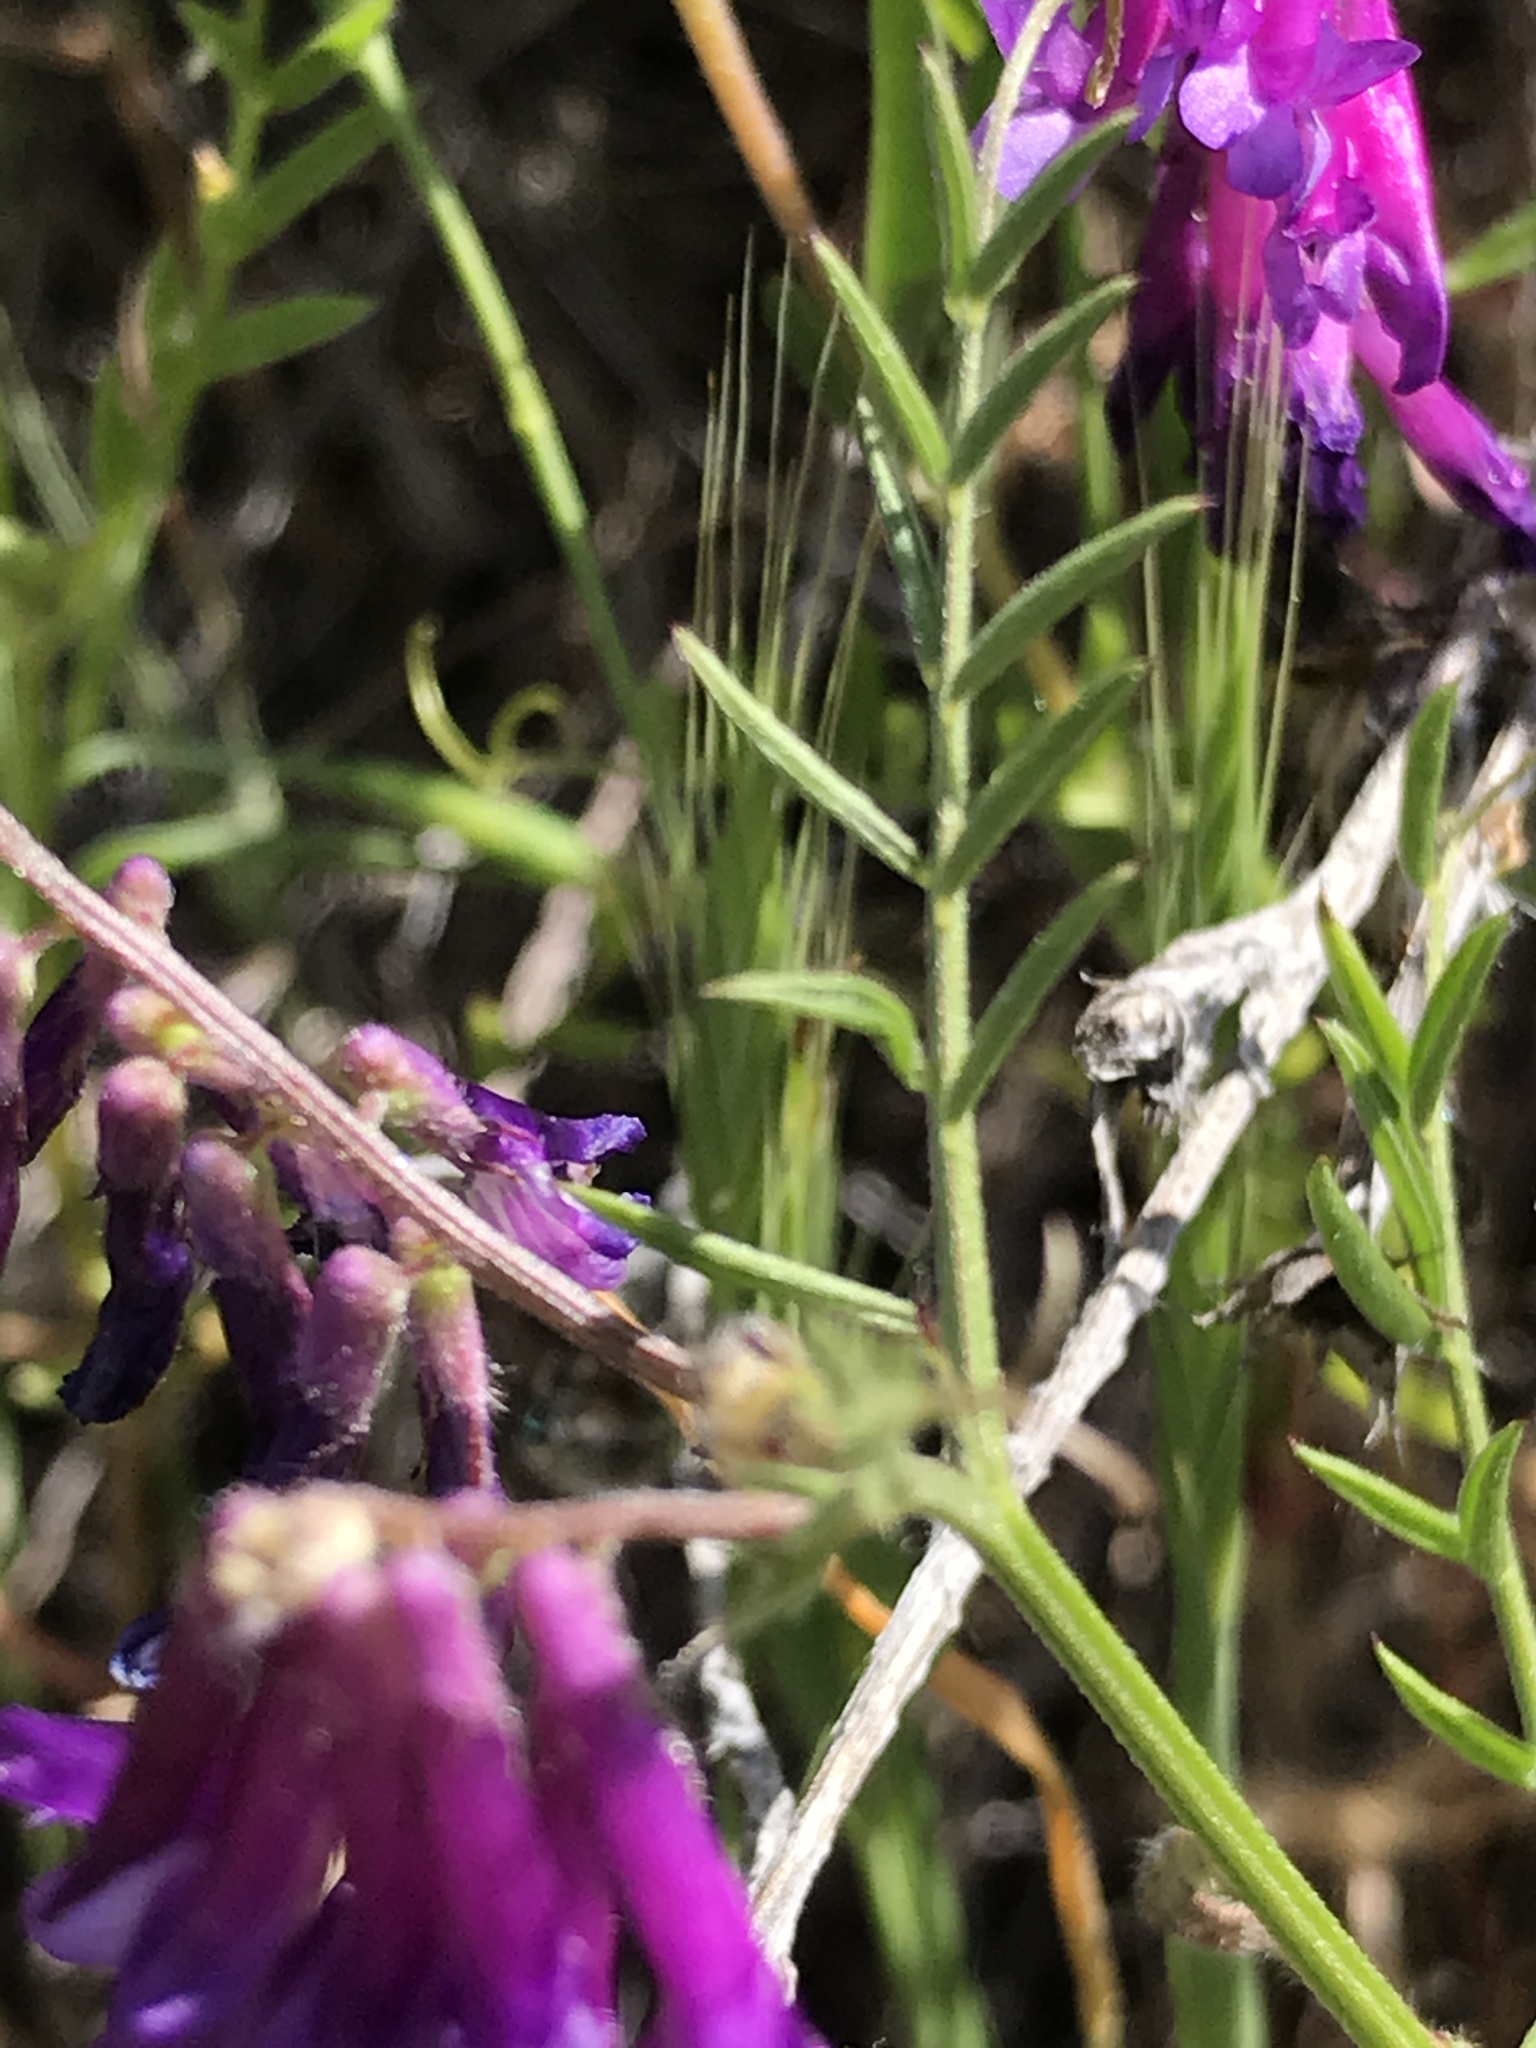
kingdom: Plantae
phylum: Tracheophyta
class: Magnoliopsida
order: Fabales
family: Fabaceae
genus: Vicia
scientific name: Vicia villosa
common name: Fodder vetch
